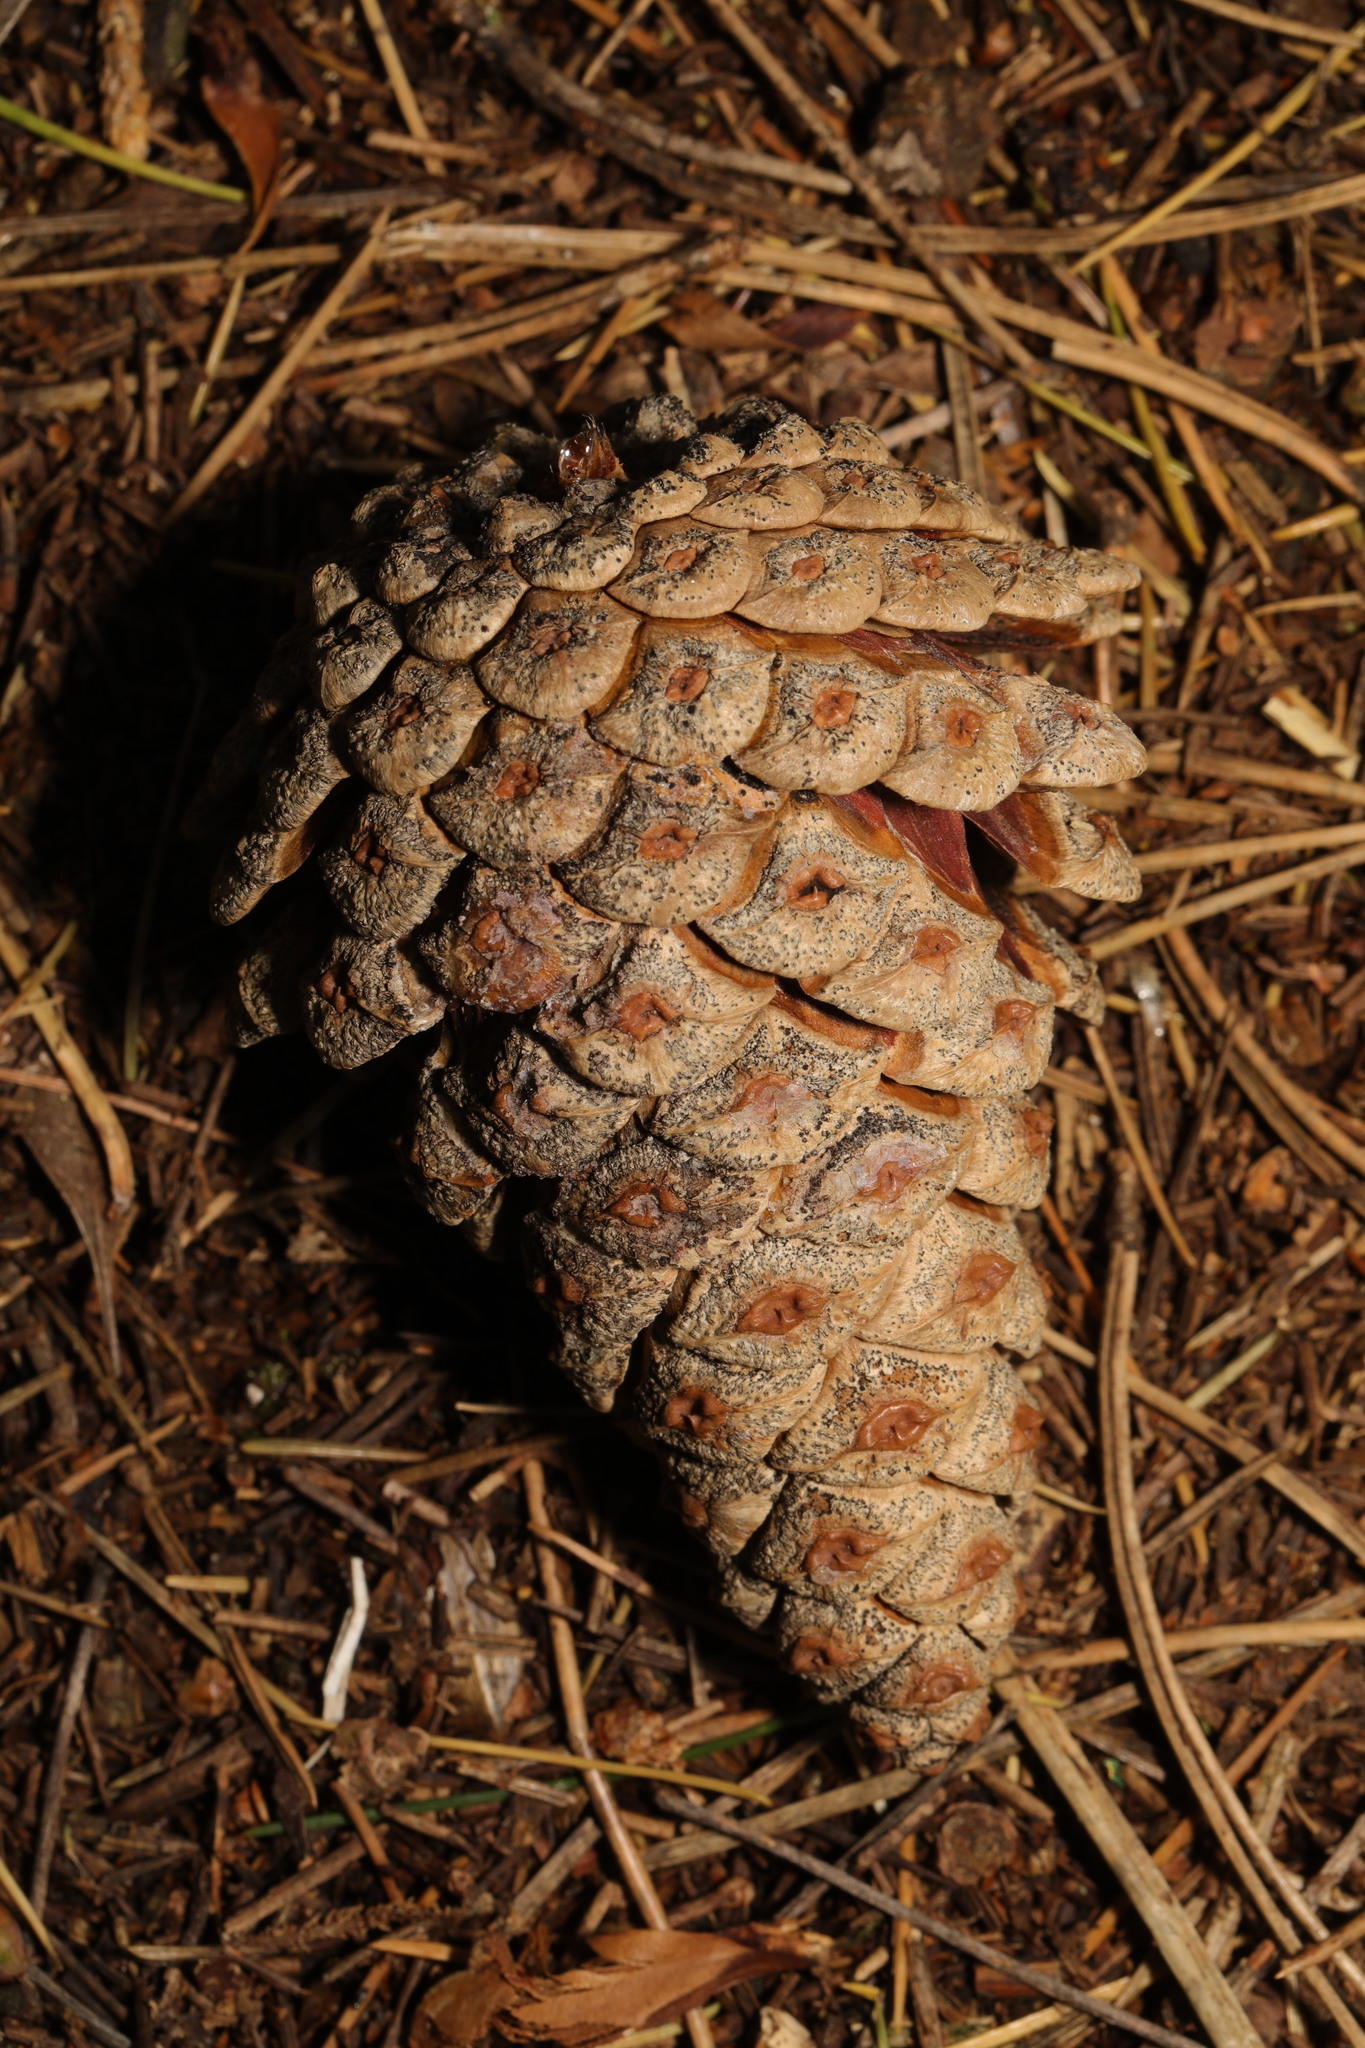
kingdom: Plantae
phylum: Tracheophyta
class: Pinopsida
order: Pinales
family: Pinaceae
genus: Pinus
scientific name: Pinus sylvestris
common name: Scots pine
